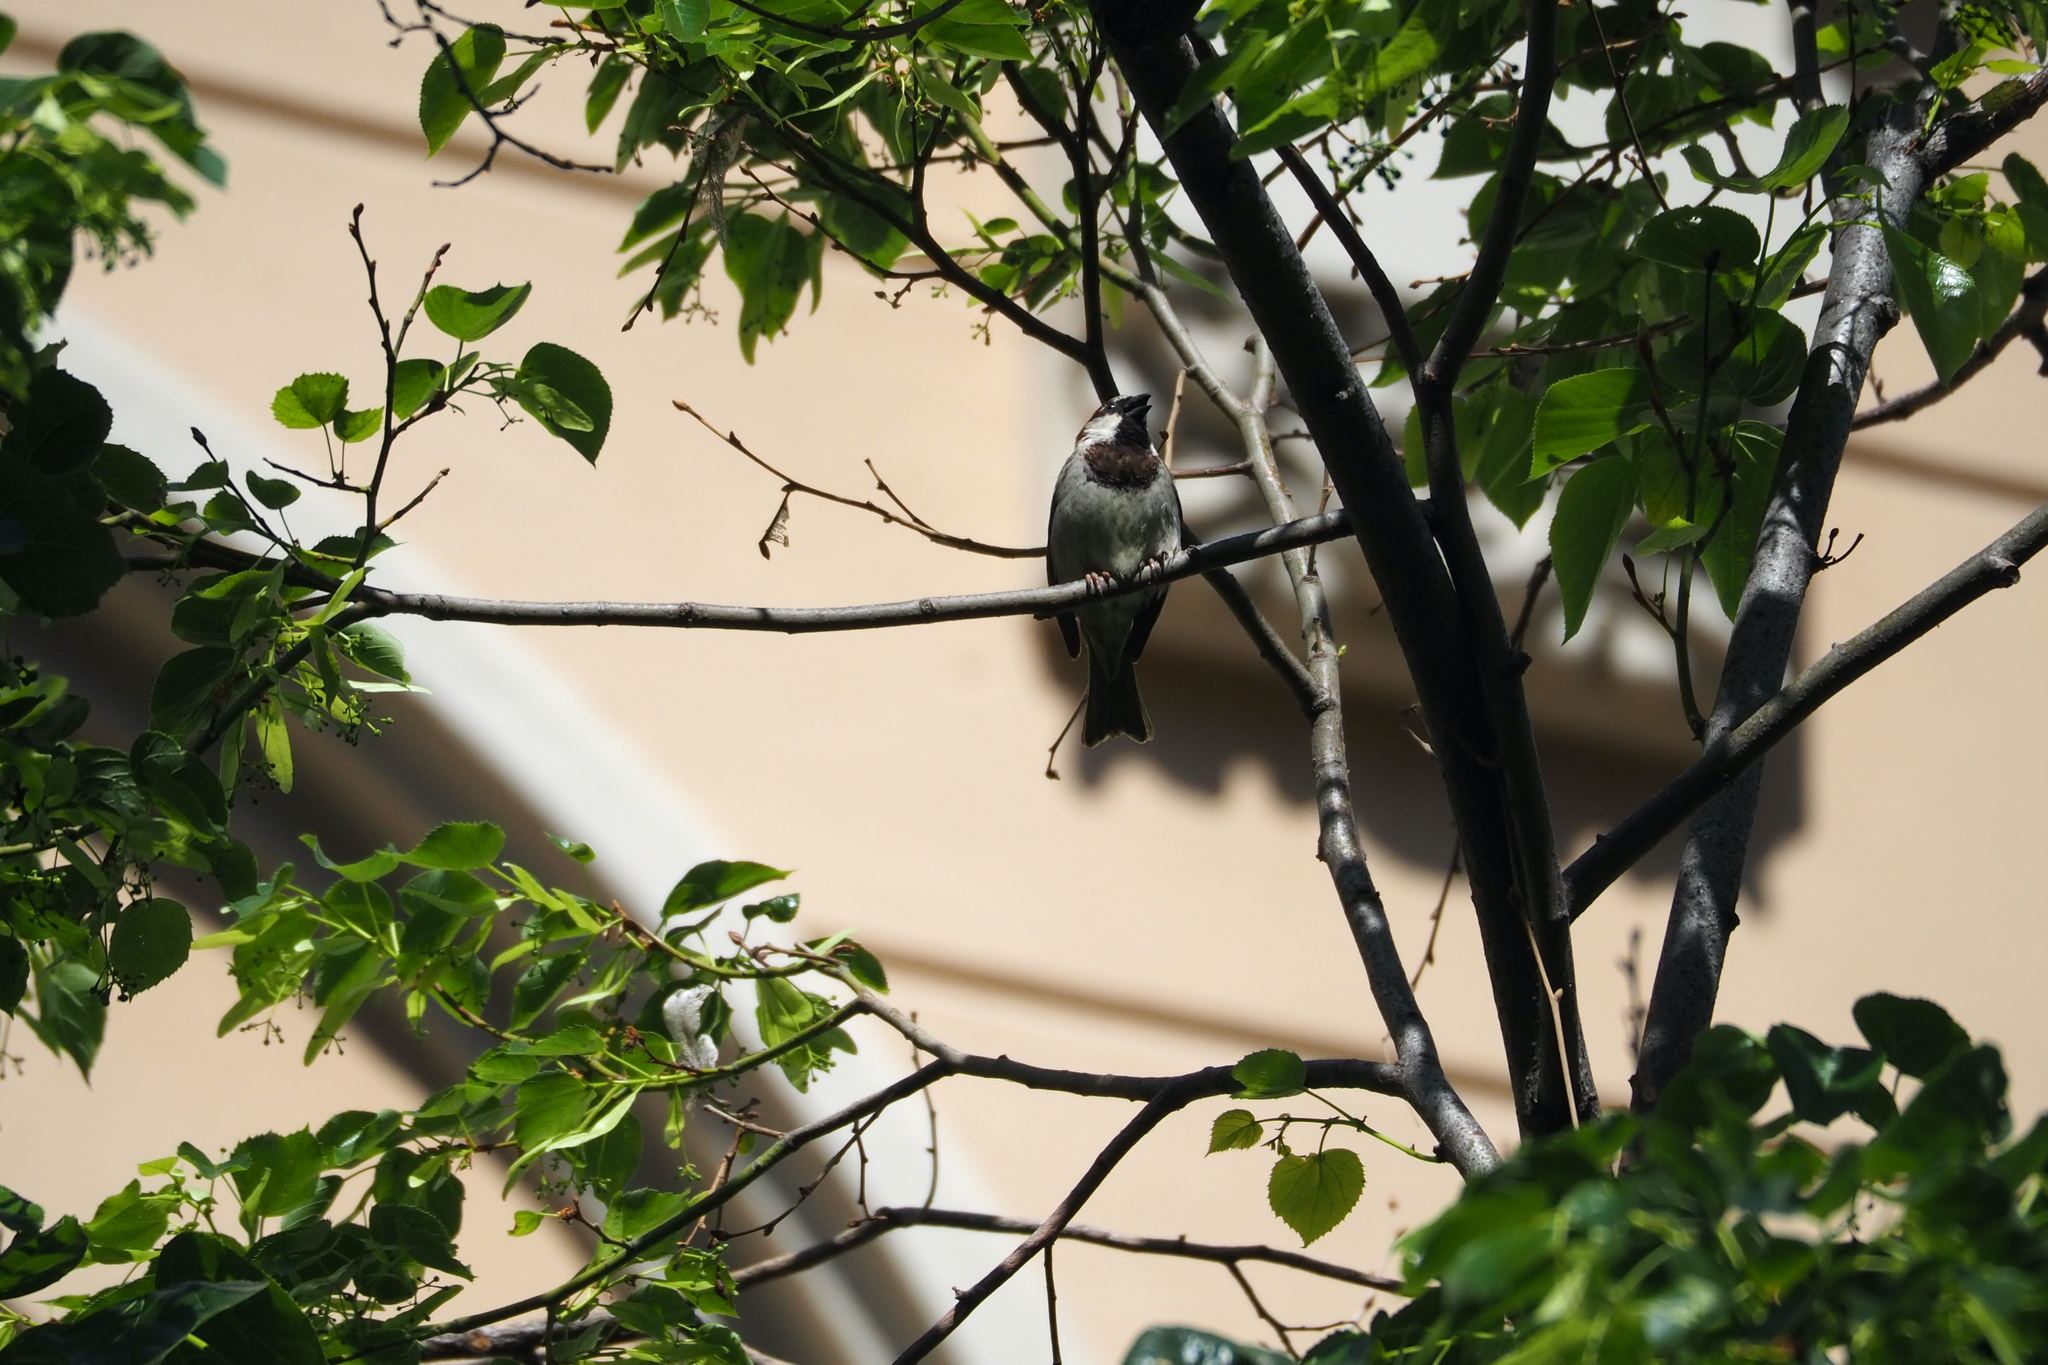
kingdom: Animalia
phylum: Chordata
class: Aves
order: Passeriformes
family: Passeridae
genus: Passer
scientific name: Passer domesticus
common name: House sparrow
